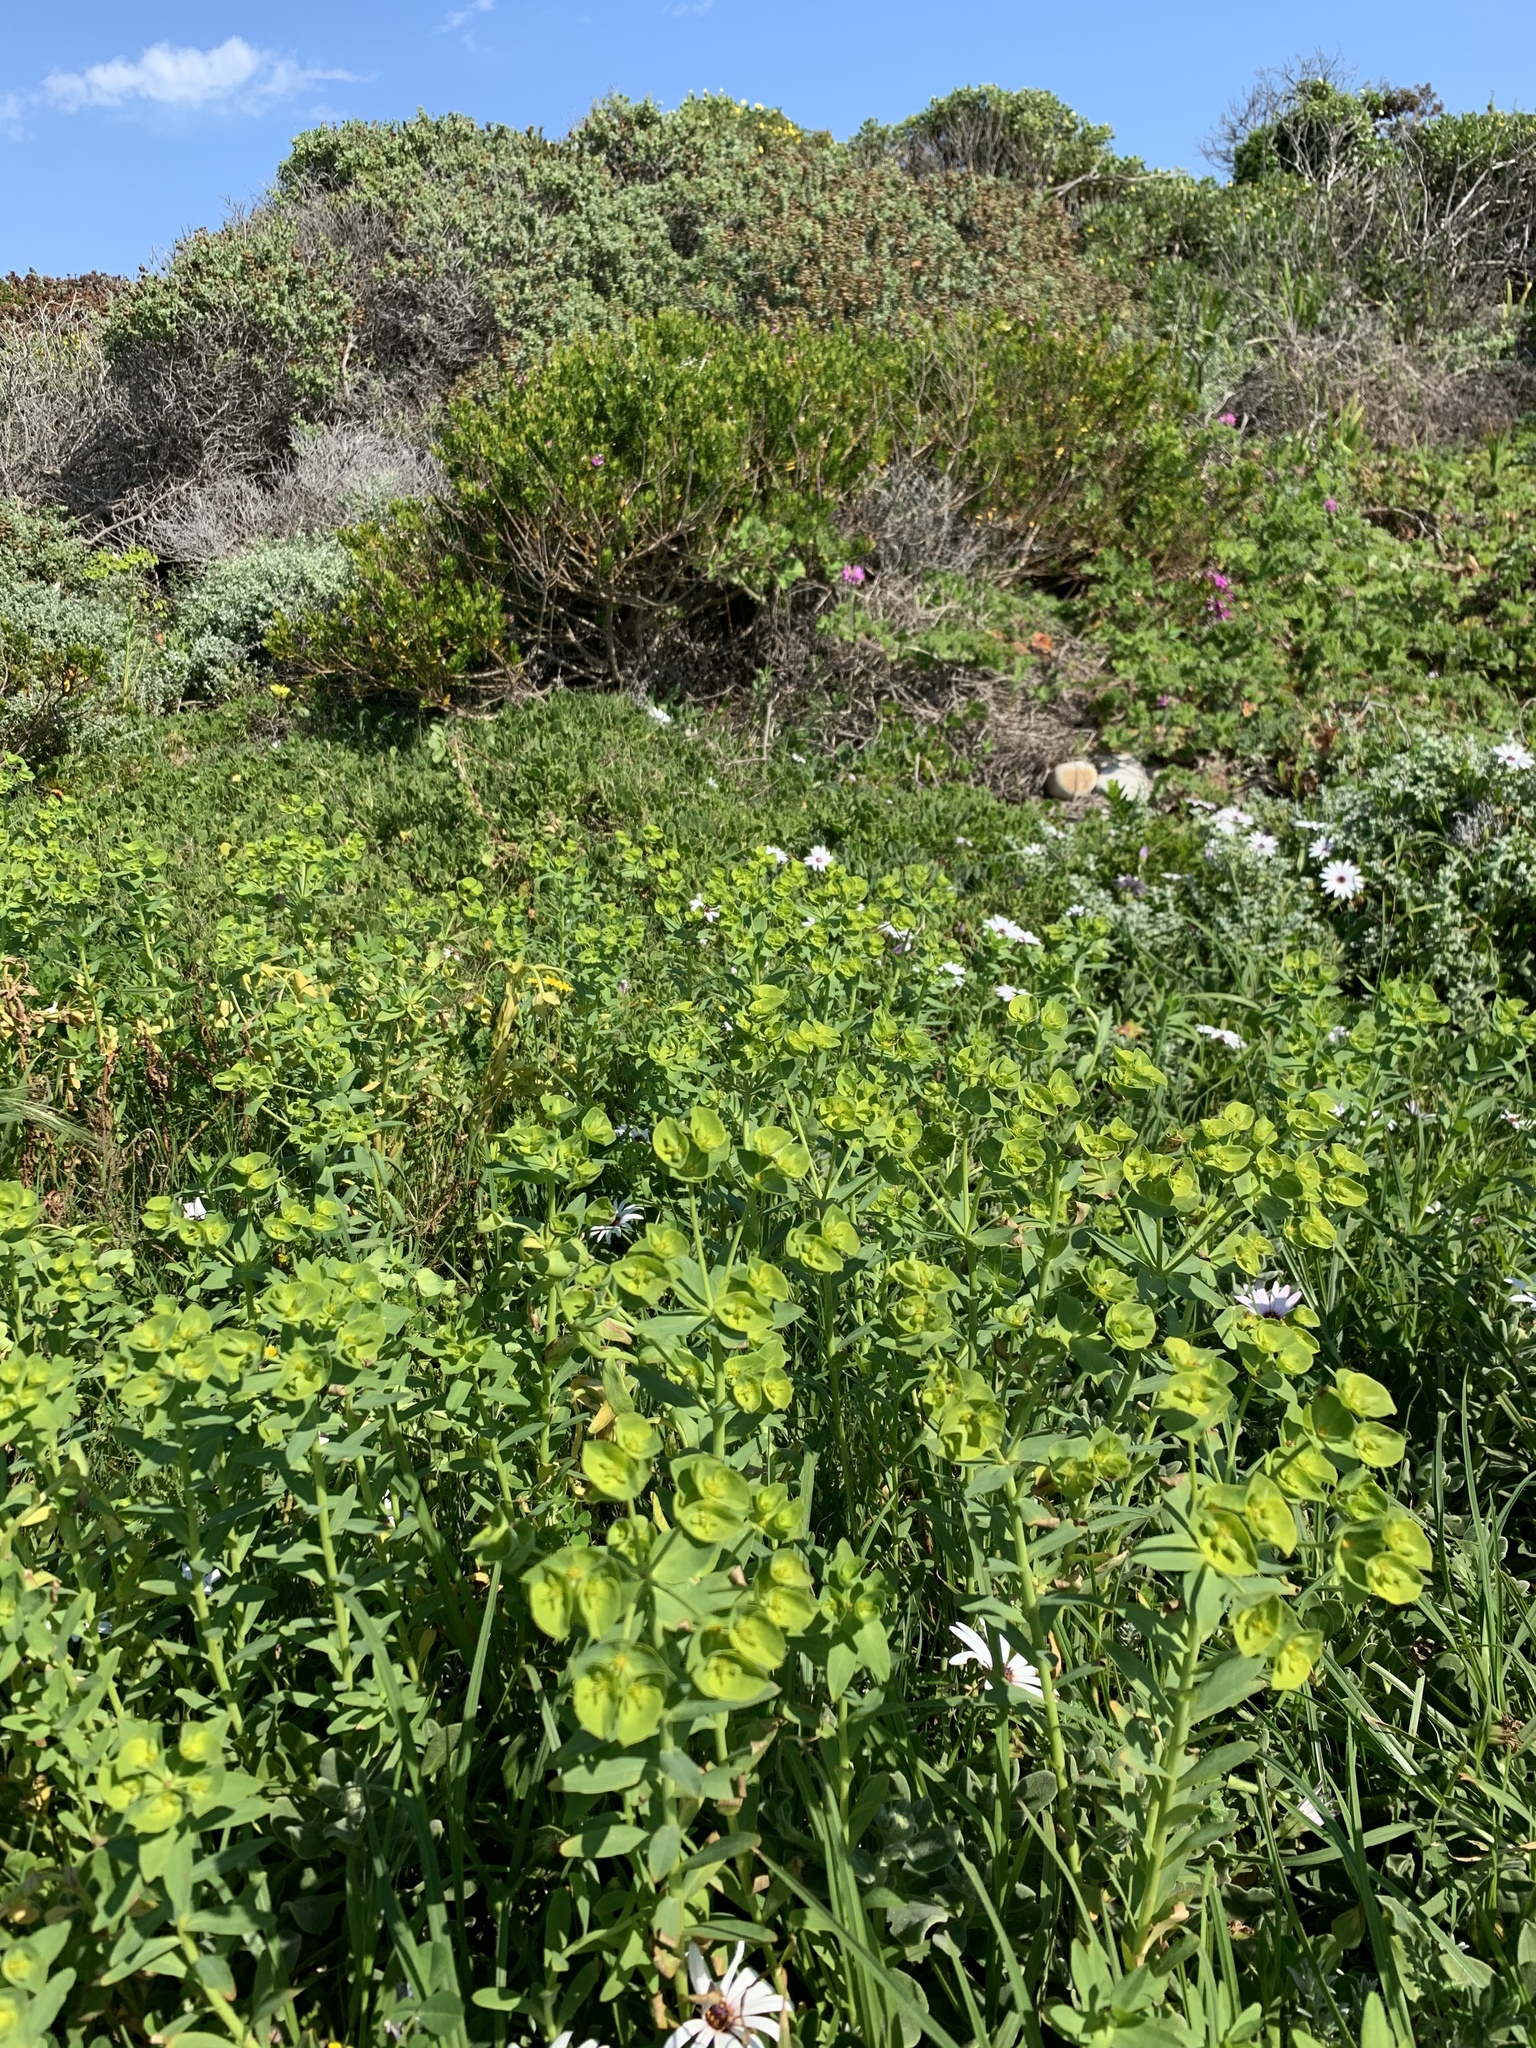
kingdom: Plantae
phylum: Tracheophyta
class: Magnoliopsida
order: Malpighiales
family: Euphorbiaceae
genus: Euphorbia
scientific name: Euphorbia terracina
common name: Geraldton carnation weed
